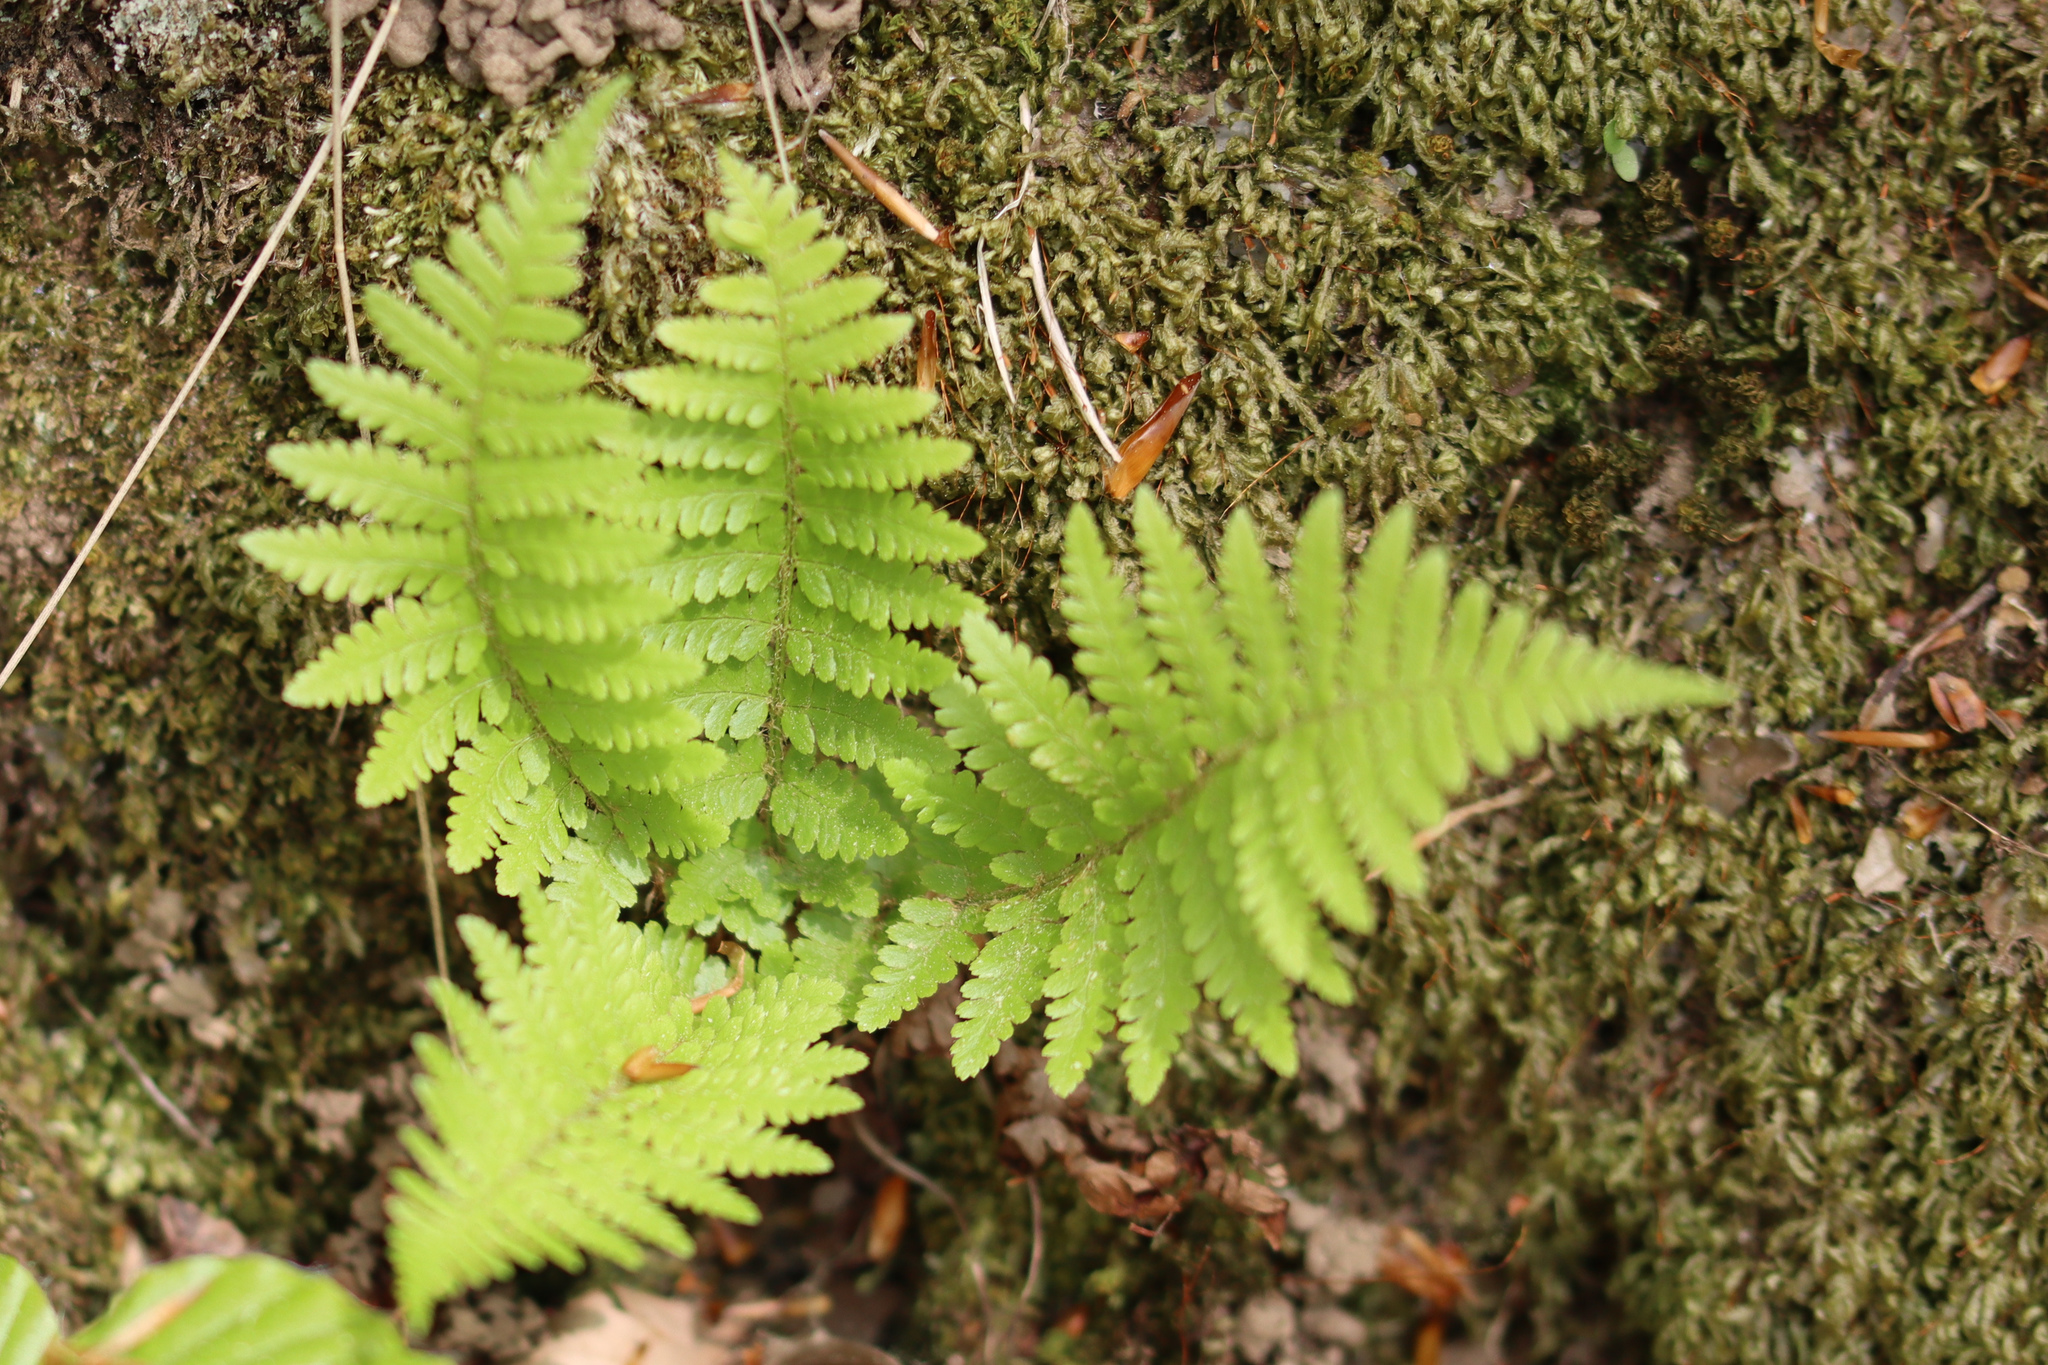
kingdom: Plantae
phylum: Tracheophyta
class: Polypodiopsida
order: Polypodiales
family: Dryopteridaceae
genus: Dryopteris
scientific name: Dryopteris filix-mas
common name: Male fern
